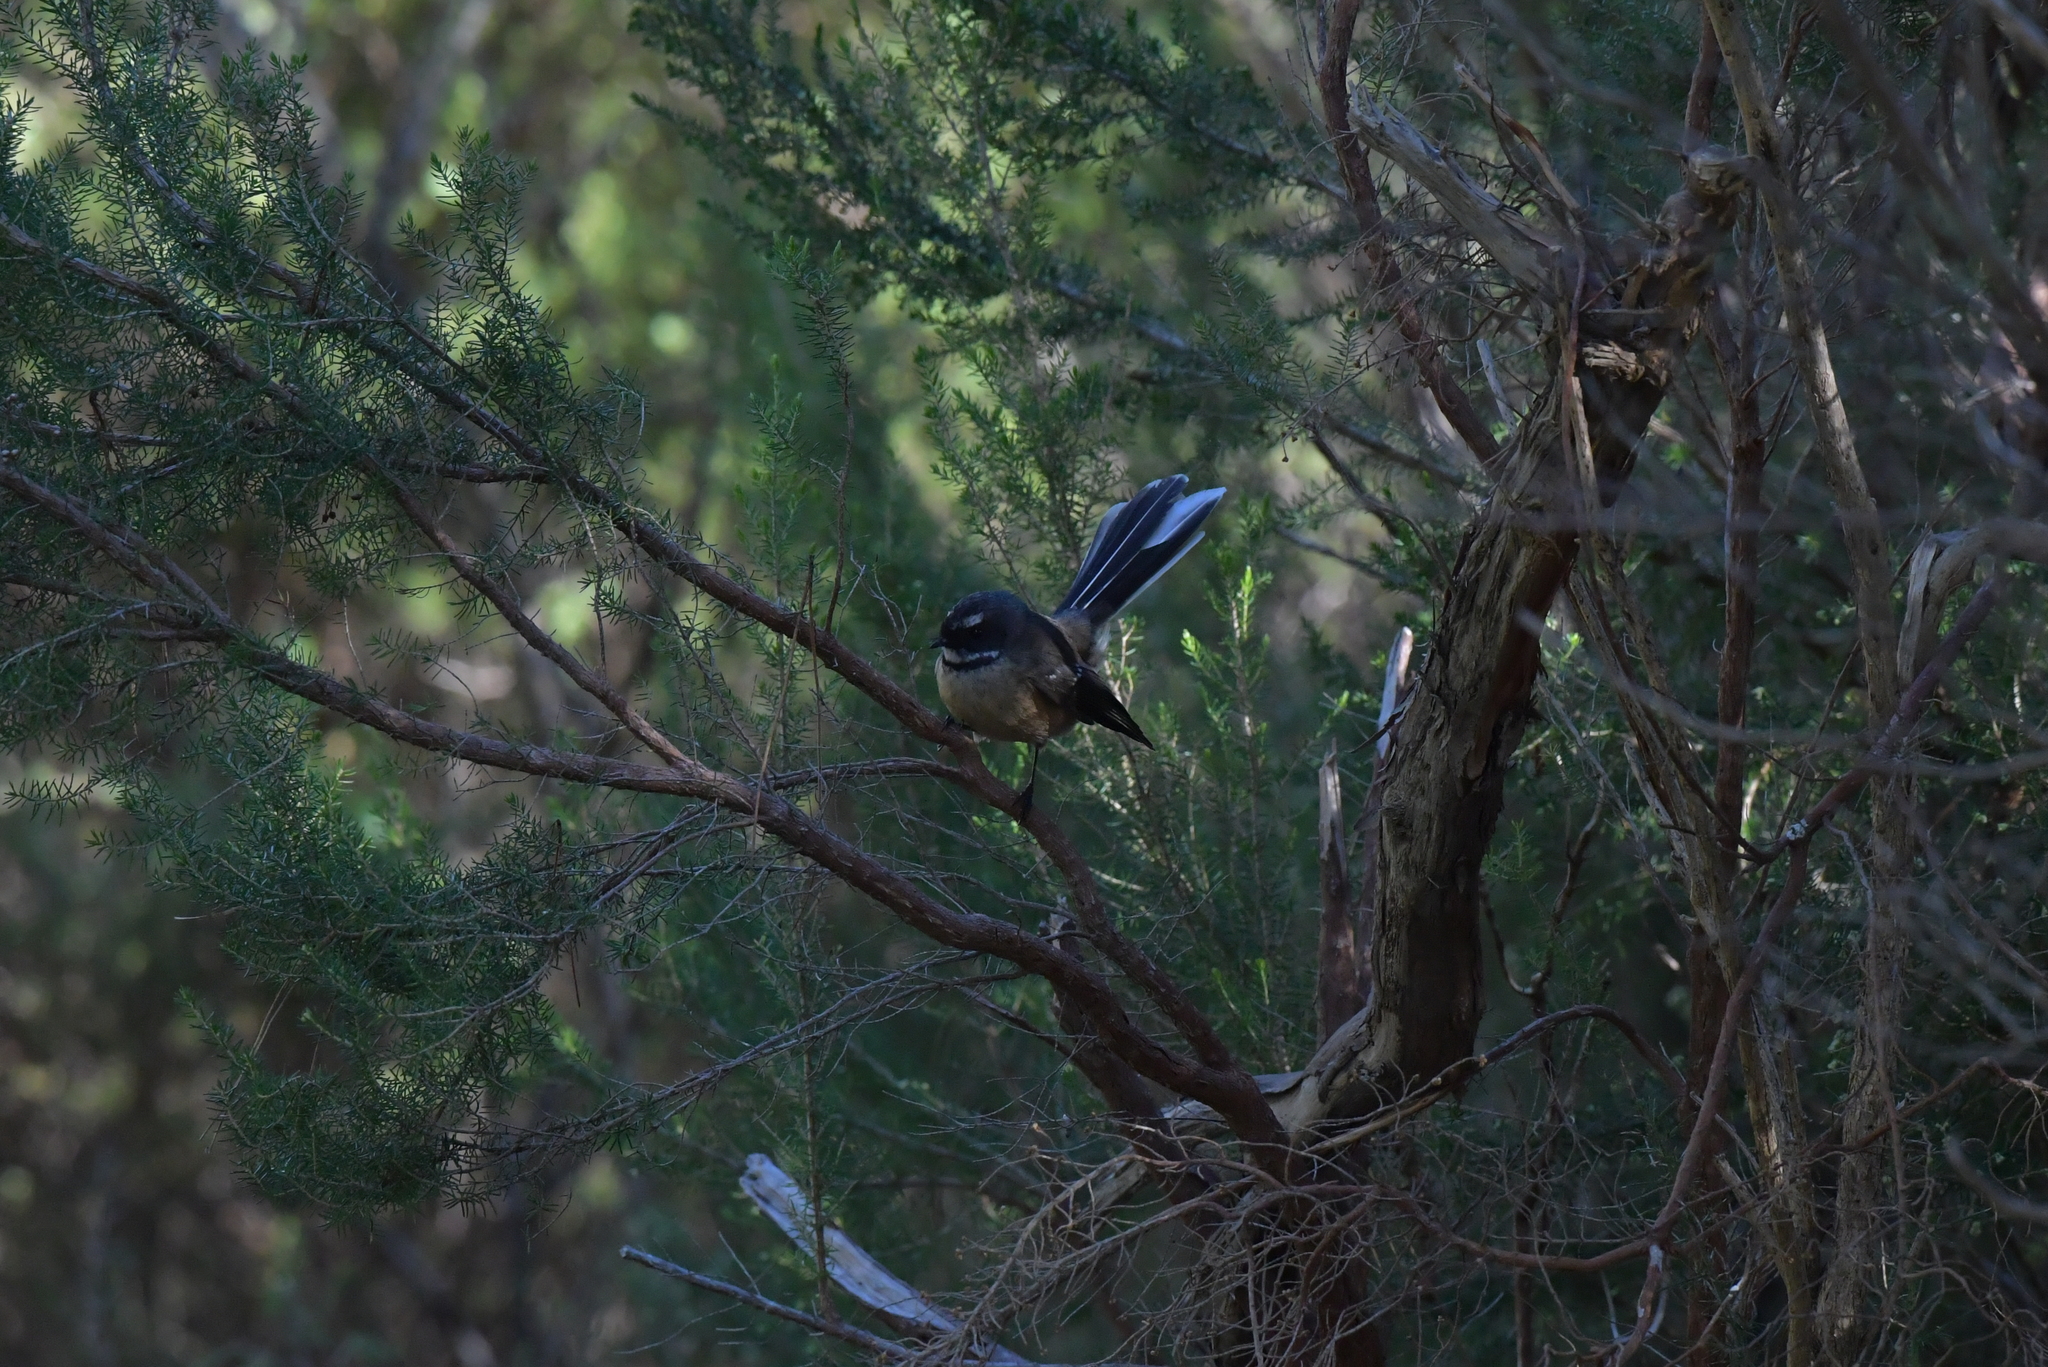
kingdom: Animalia
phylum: Chordata
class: Aves
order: Passeriformes
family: Rhipiduridae
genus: Rhipidura
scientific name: Rhipidura fuliginosa
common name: New zealand fantail
